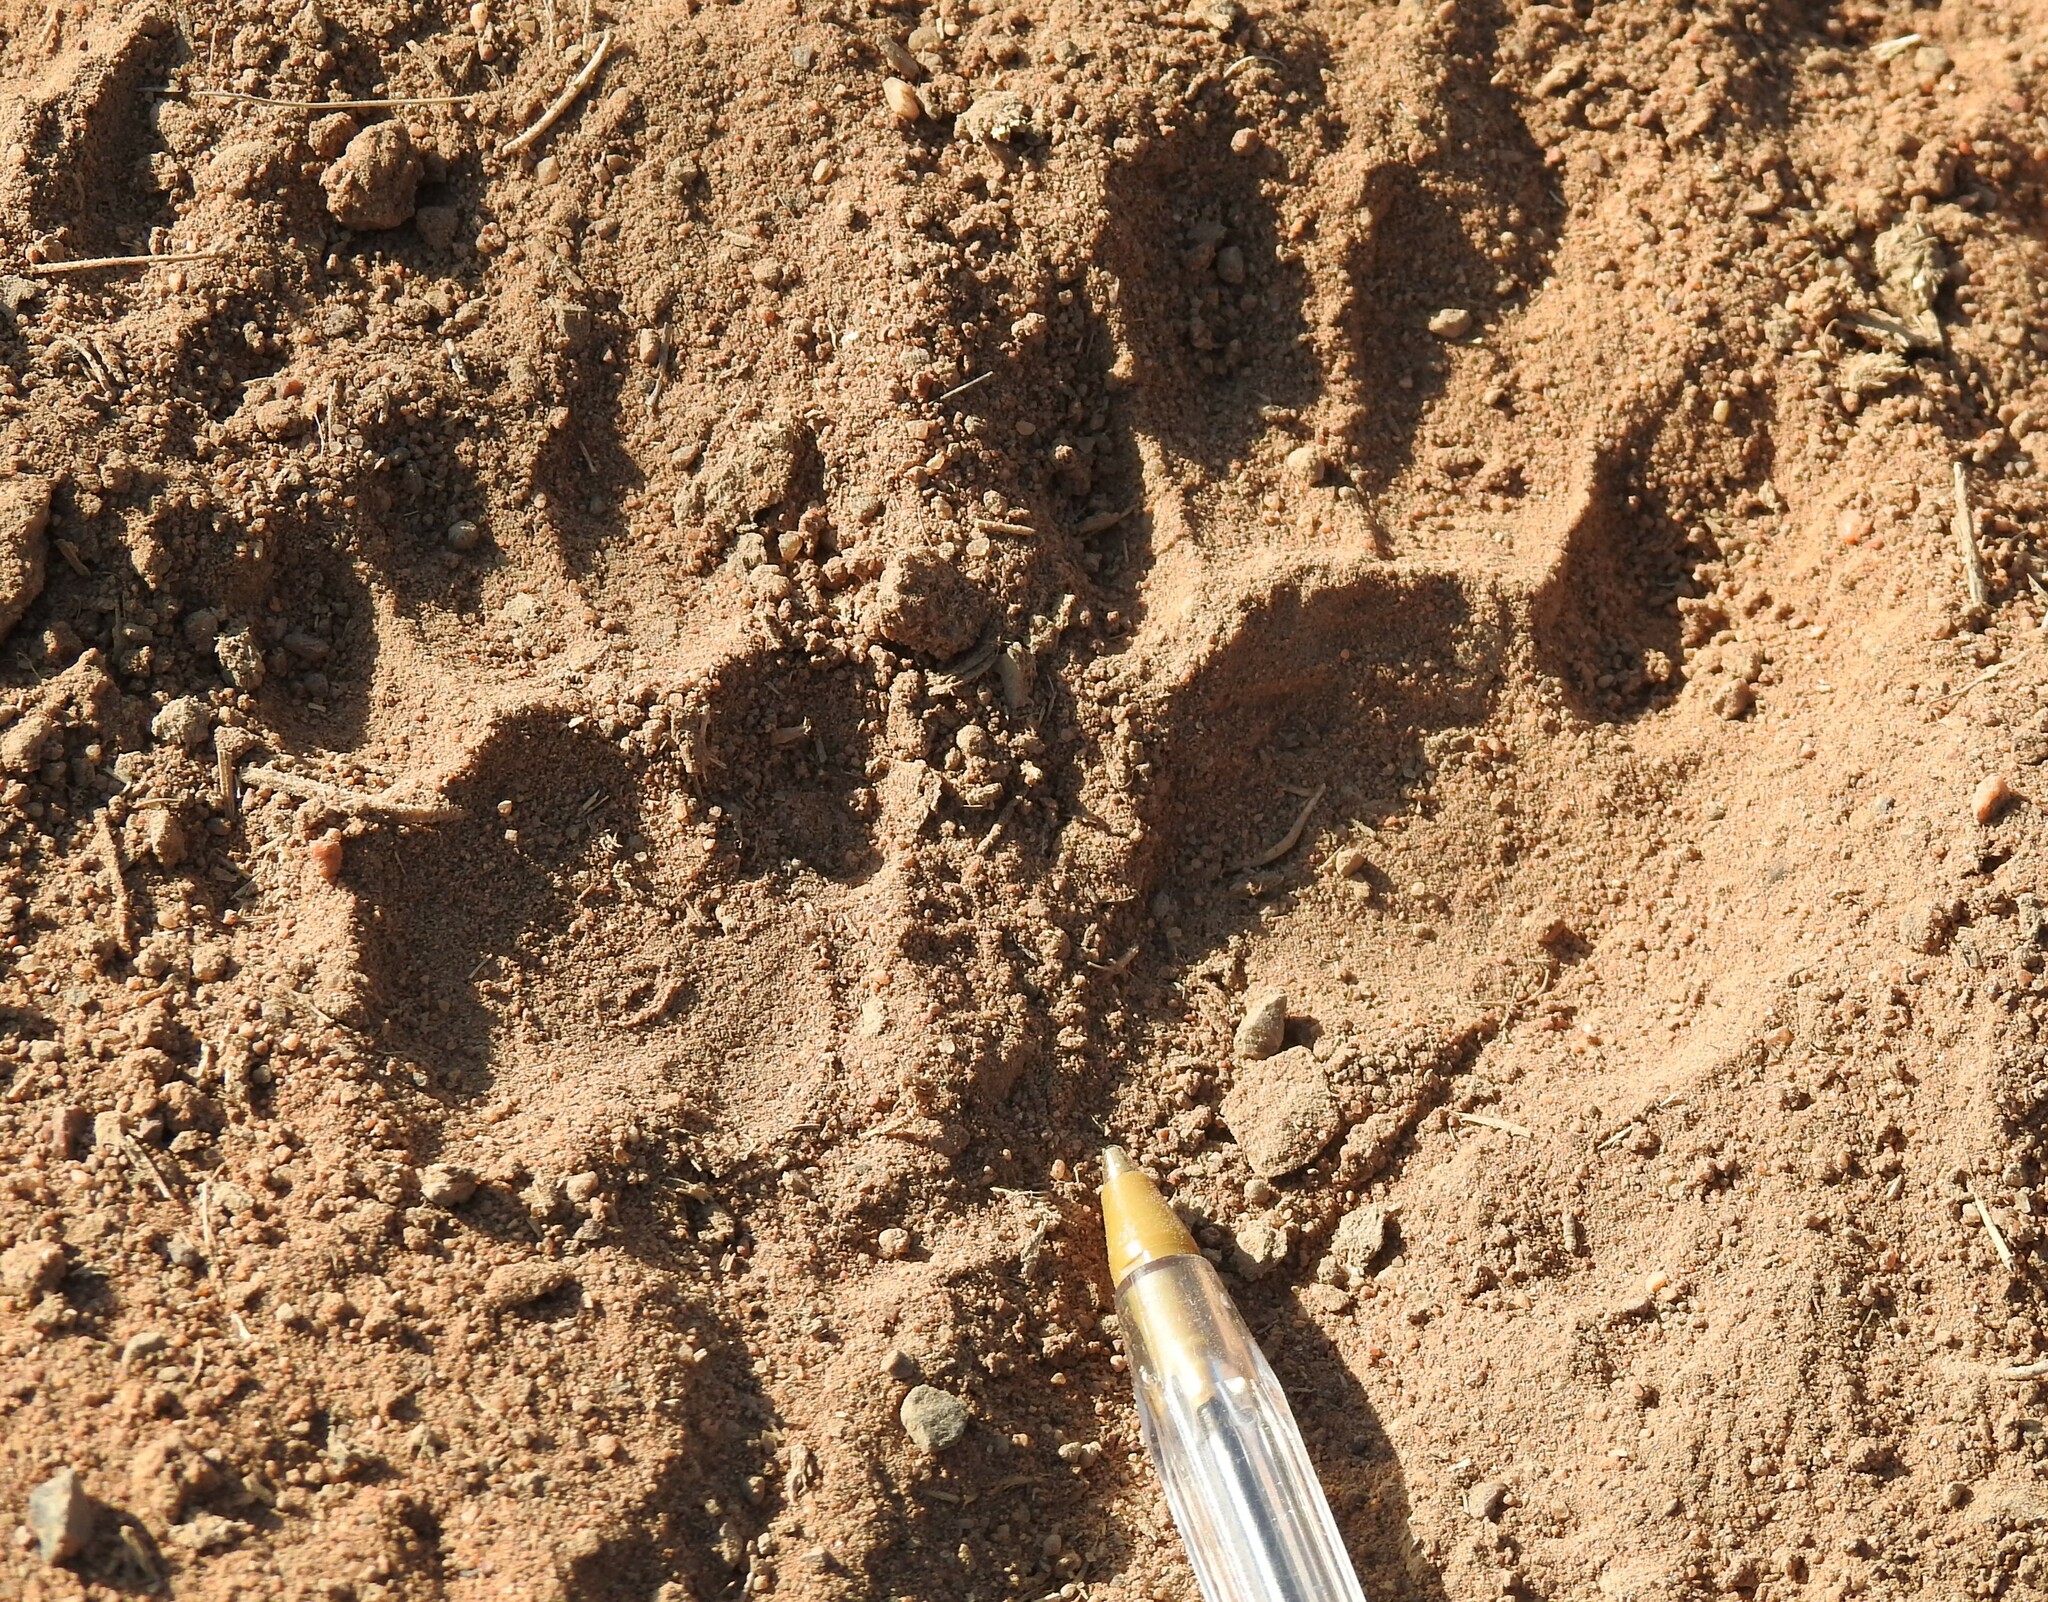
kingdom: Animalia
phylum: Chordata
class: Mammalia
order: Carnivora
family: Procyonidae
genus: Procyon
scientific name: Procyon lotor
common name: Raccoon
